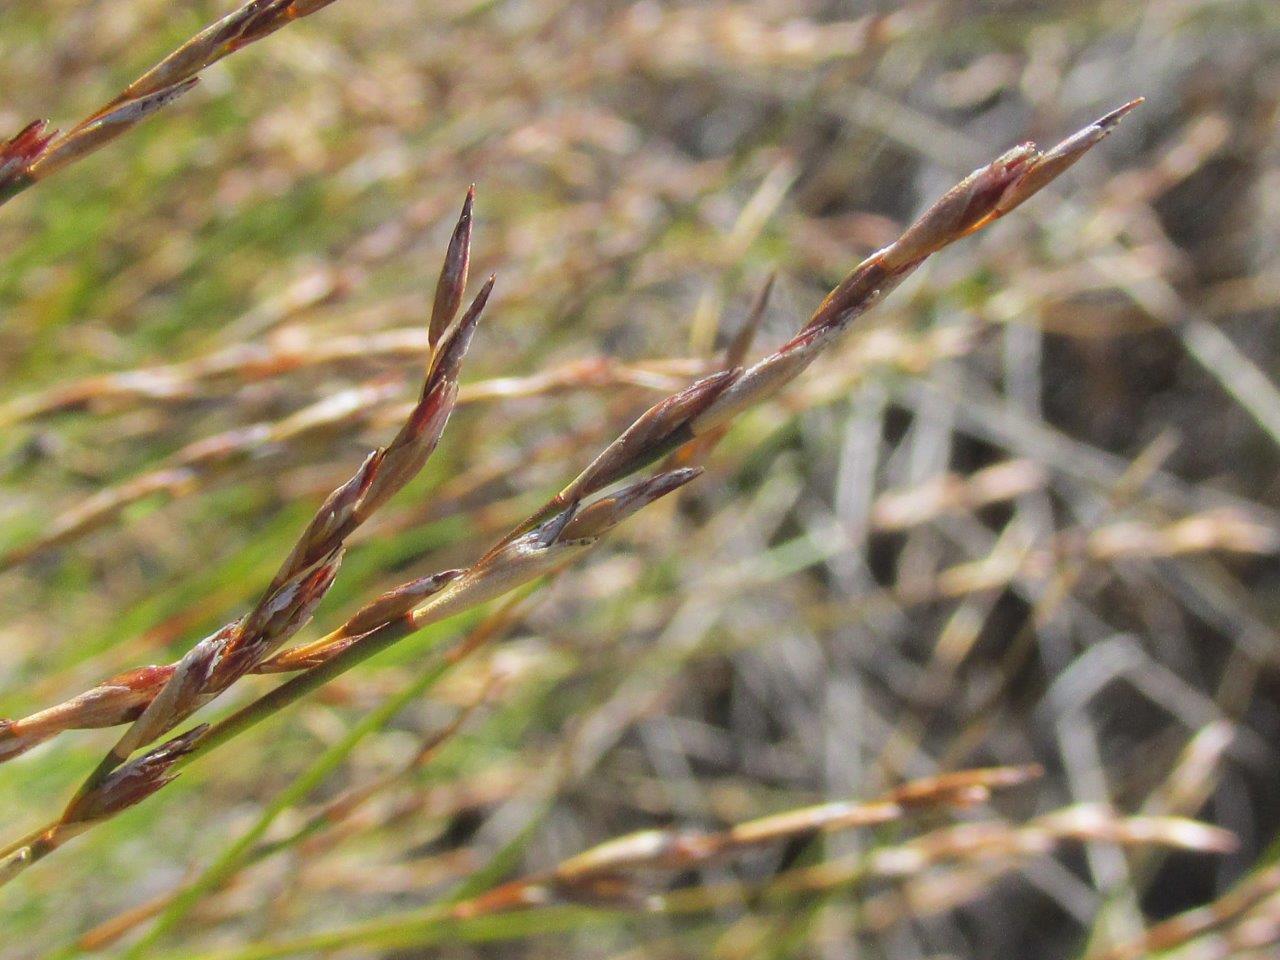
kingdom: Plantae
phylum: Tracheophyta
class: Liliopsida
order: Poales
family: Restionaceae
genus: Restio
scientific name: Restio paludosus
